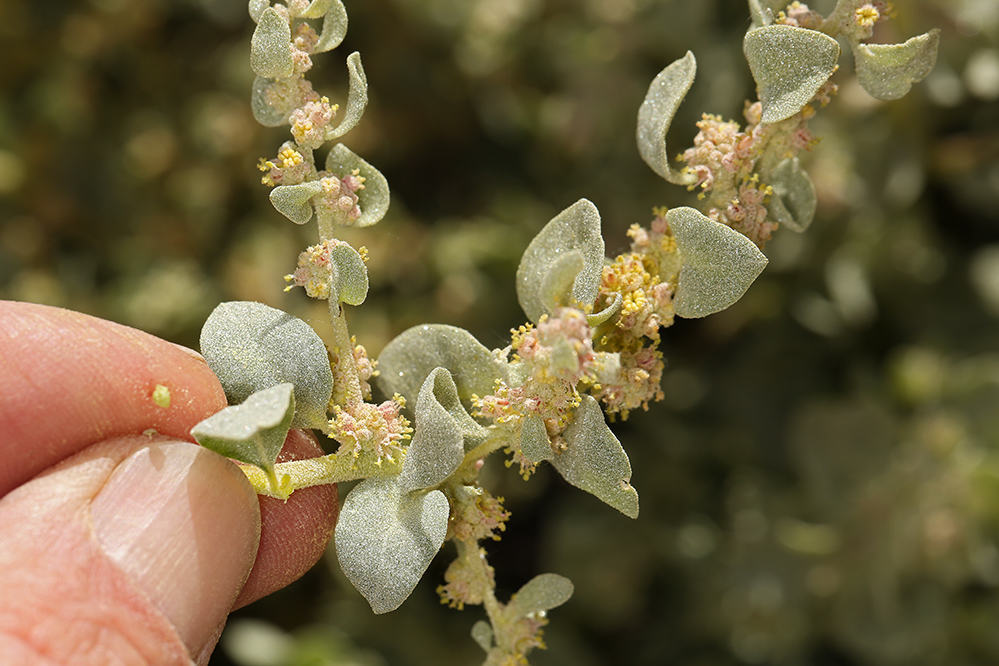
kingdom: Plantae
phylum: Tracheophyta
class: Magnoliopsida
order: Caryophyllales
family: Amaranthaceae
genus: Atriplex
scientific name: Atriplex confertifolia
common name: Shadscale
